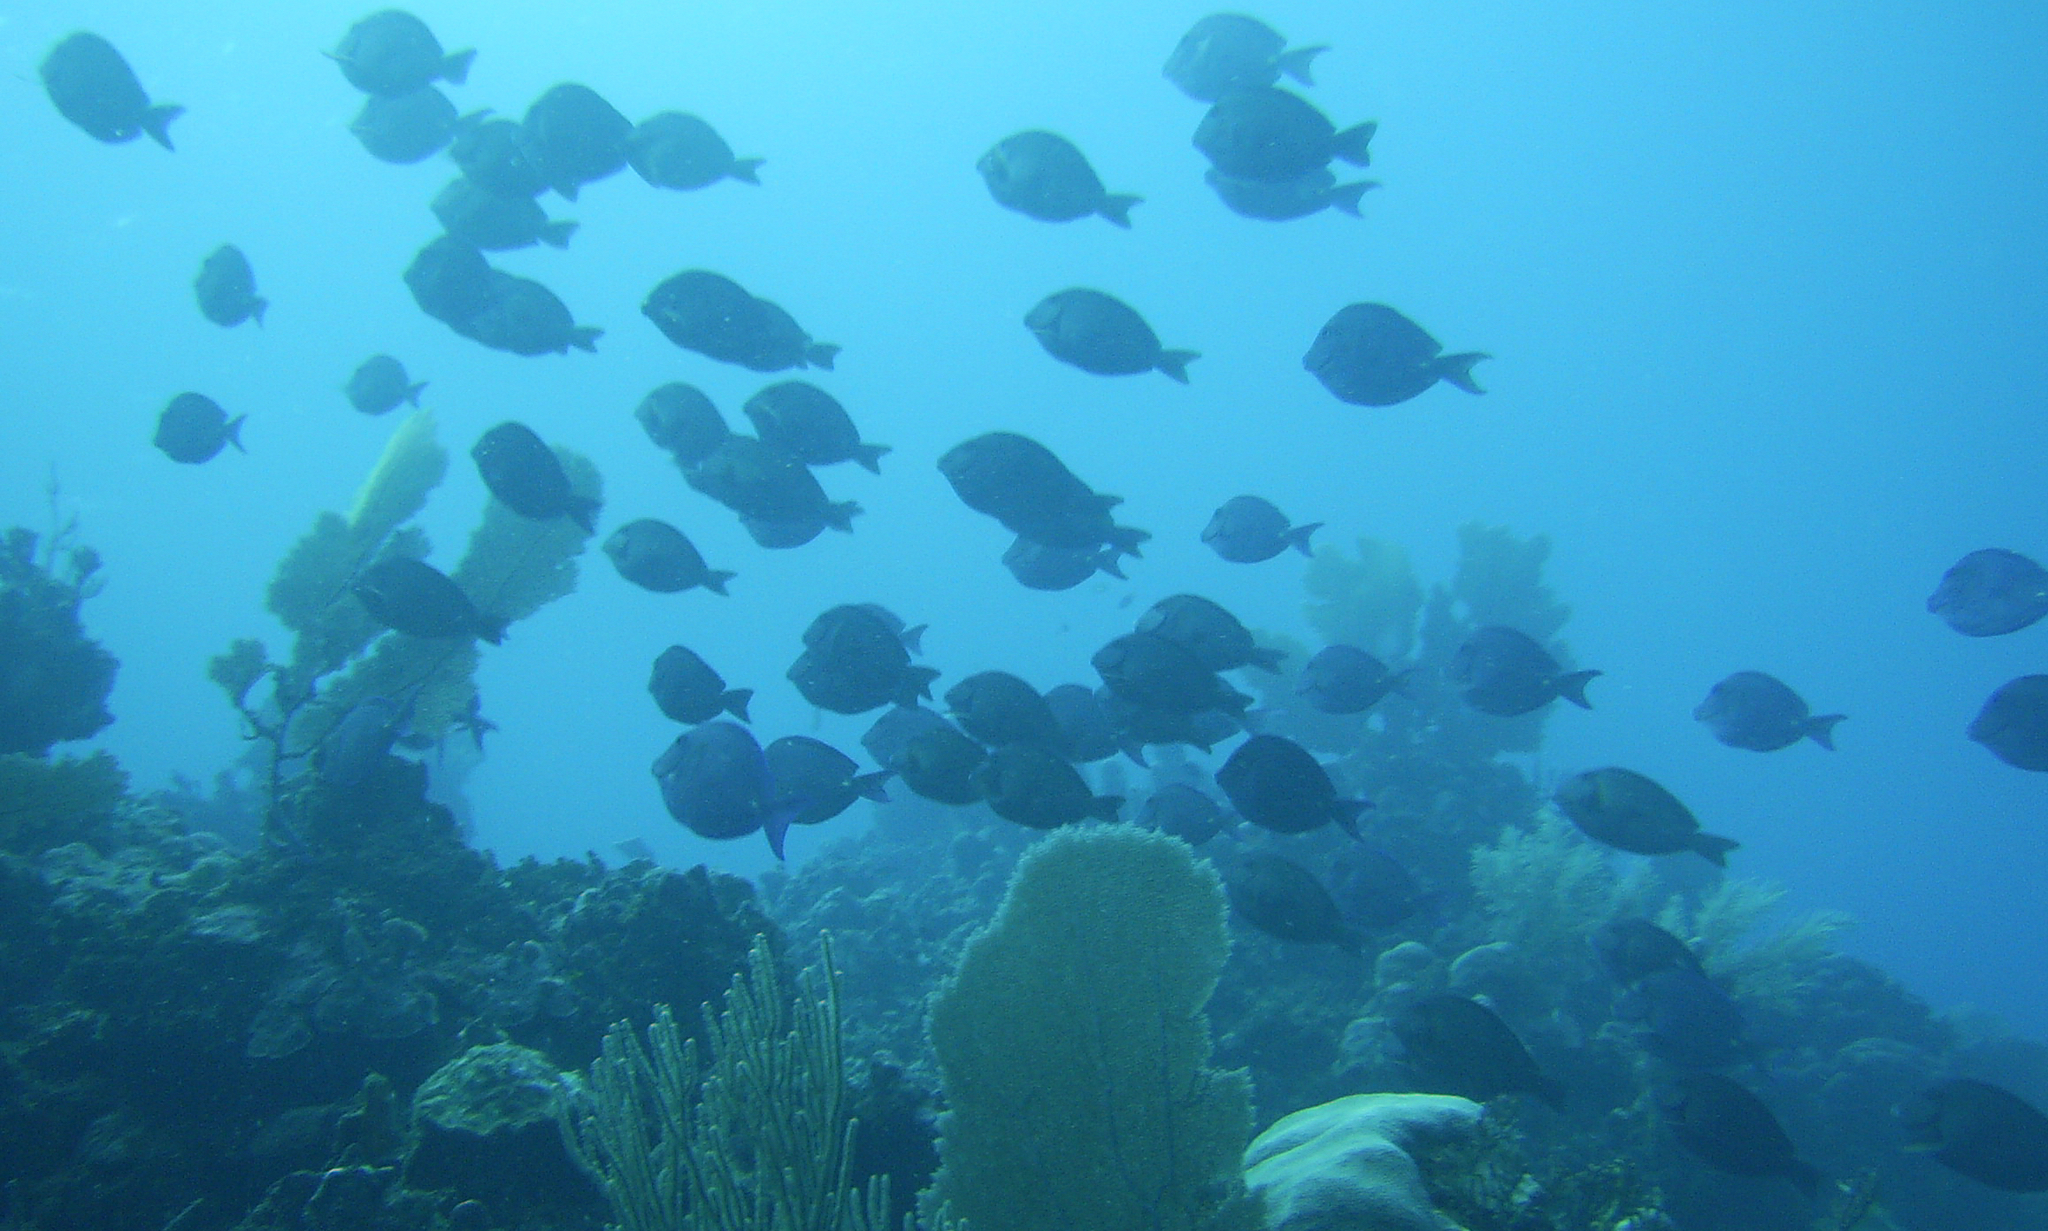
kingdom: Animalia
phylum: Chordata
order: Perciformes
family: Acanthuridae
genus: Acanthurus
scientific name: Acanthurus coeruleus
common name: Blue tang
